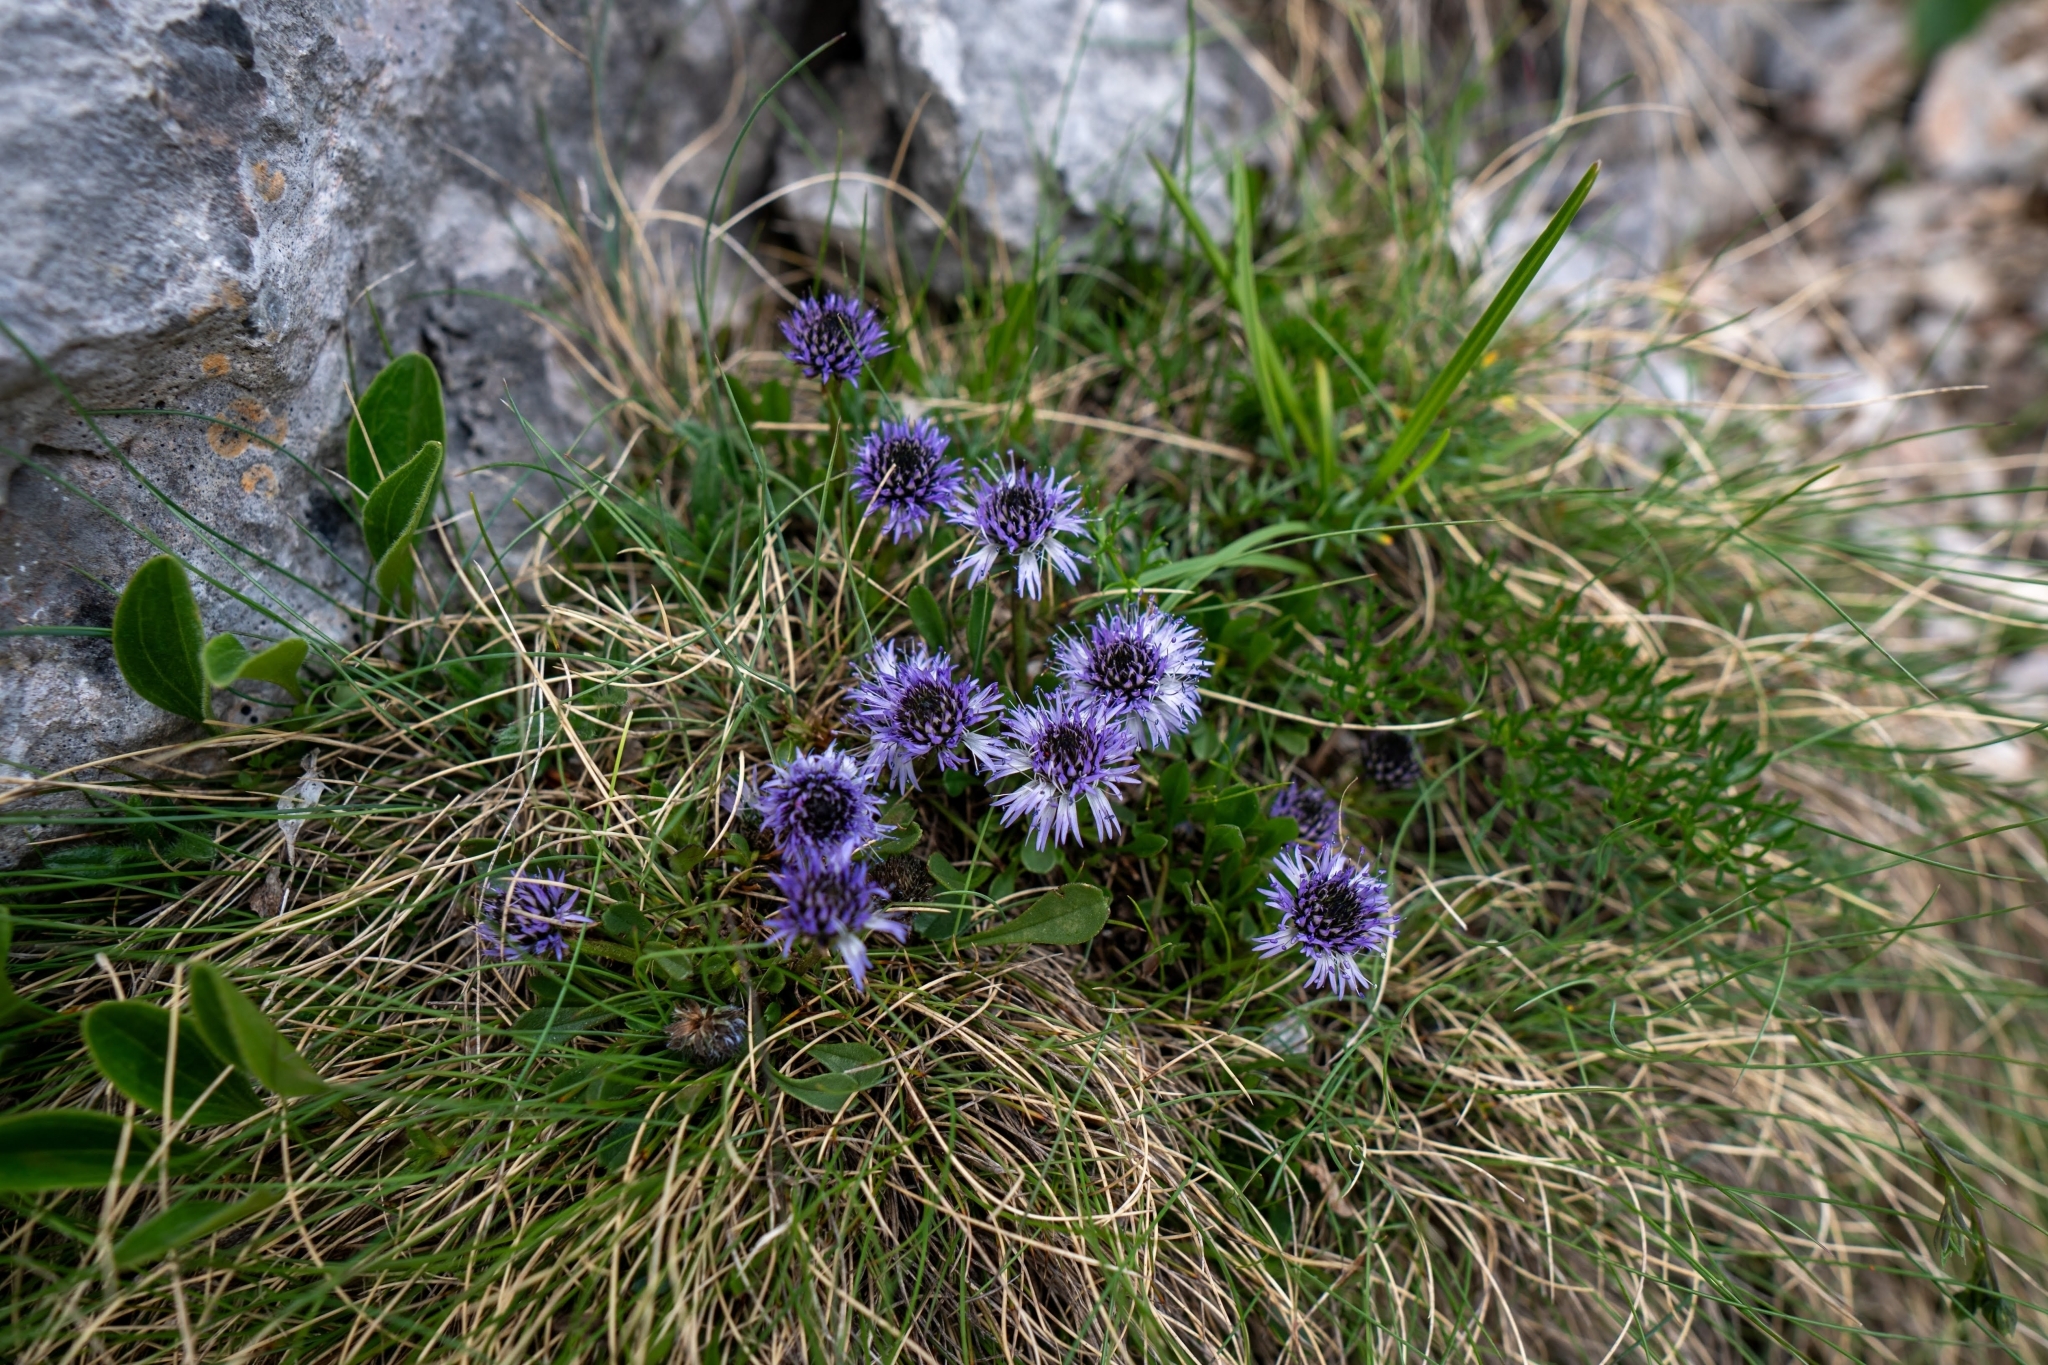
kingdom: Plantae
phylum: Tracheophyta
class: Magnoliopsida
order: Lamiales
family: Plantaginaceae
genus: Globularia
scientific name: Globularia cordifolia
